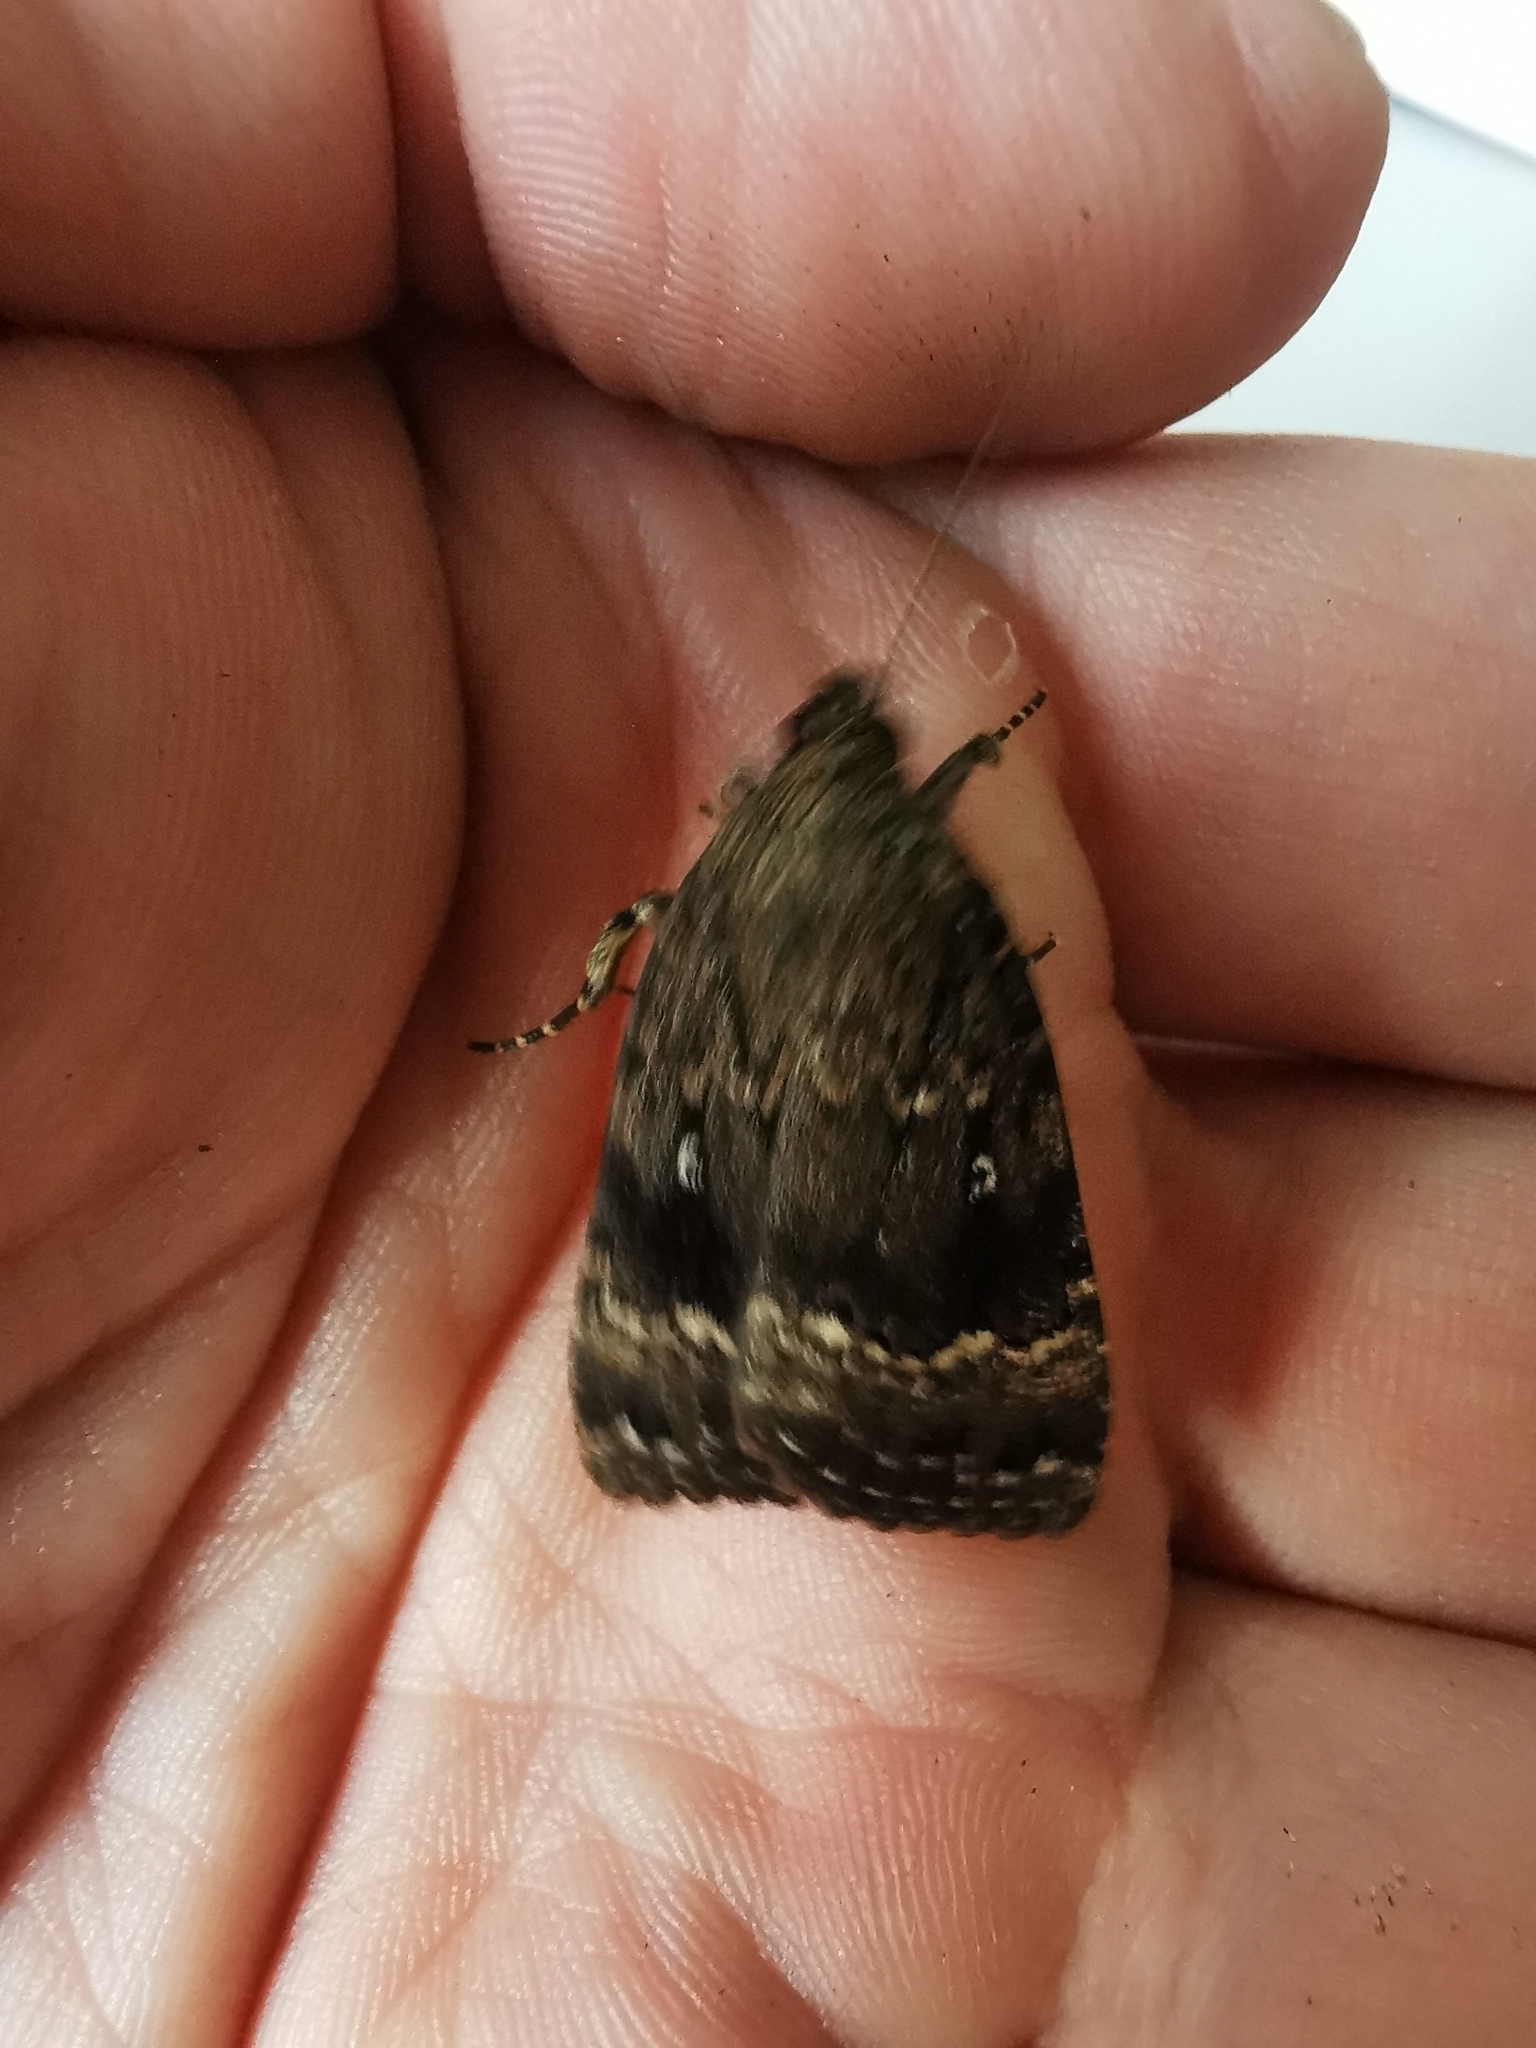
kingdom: Animalia
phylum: Arthropoda
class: Insecta
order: Lepidoptera
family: Noctuidae
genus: Amphipyra
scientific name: Amphipyra pyramidea
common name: Copper underwing
